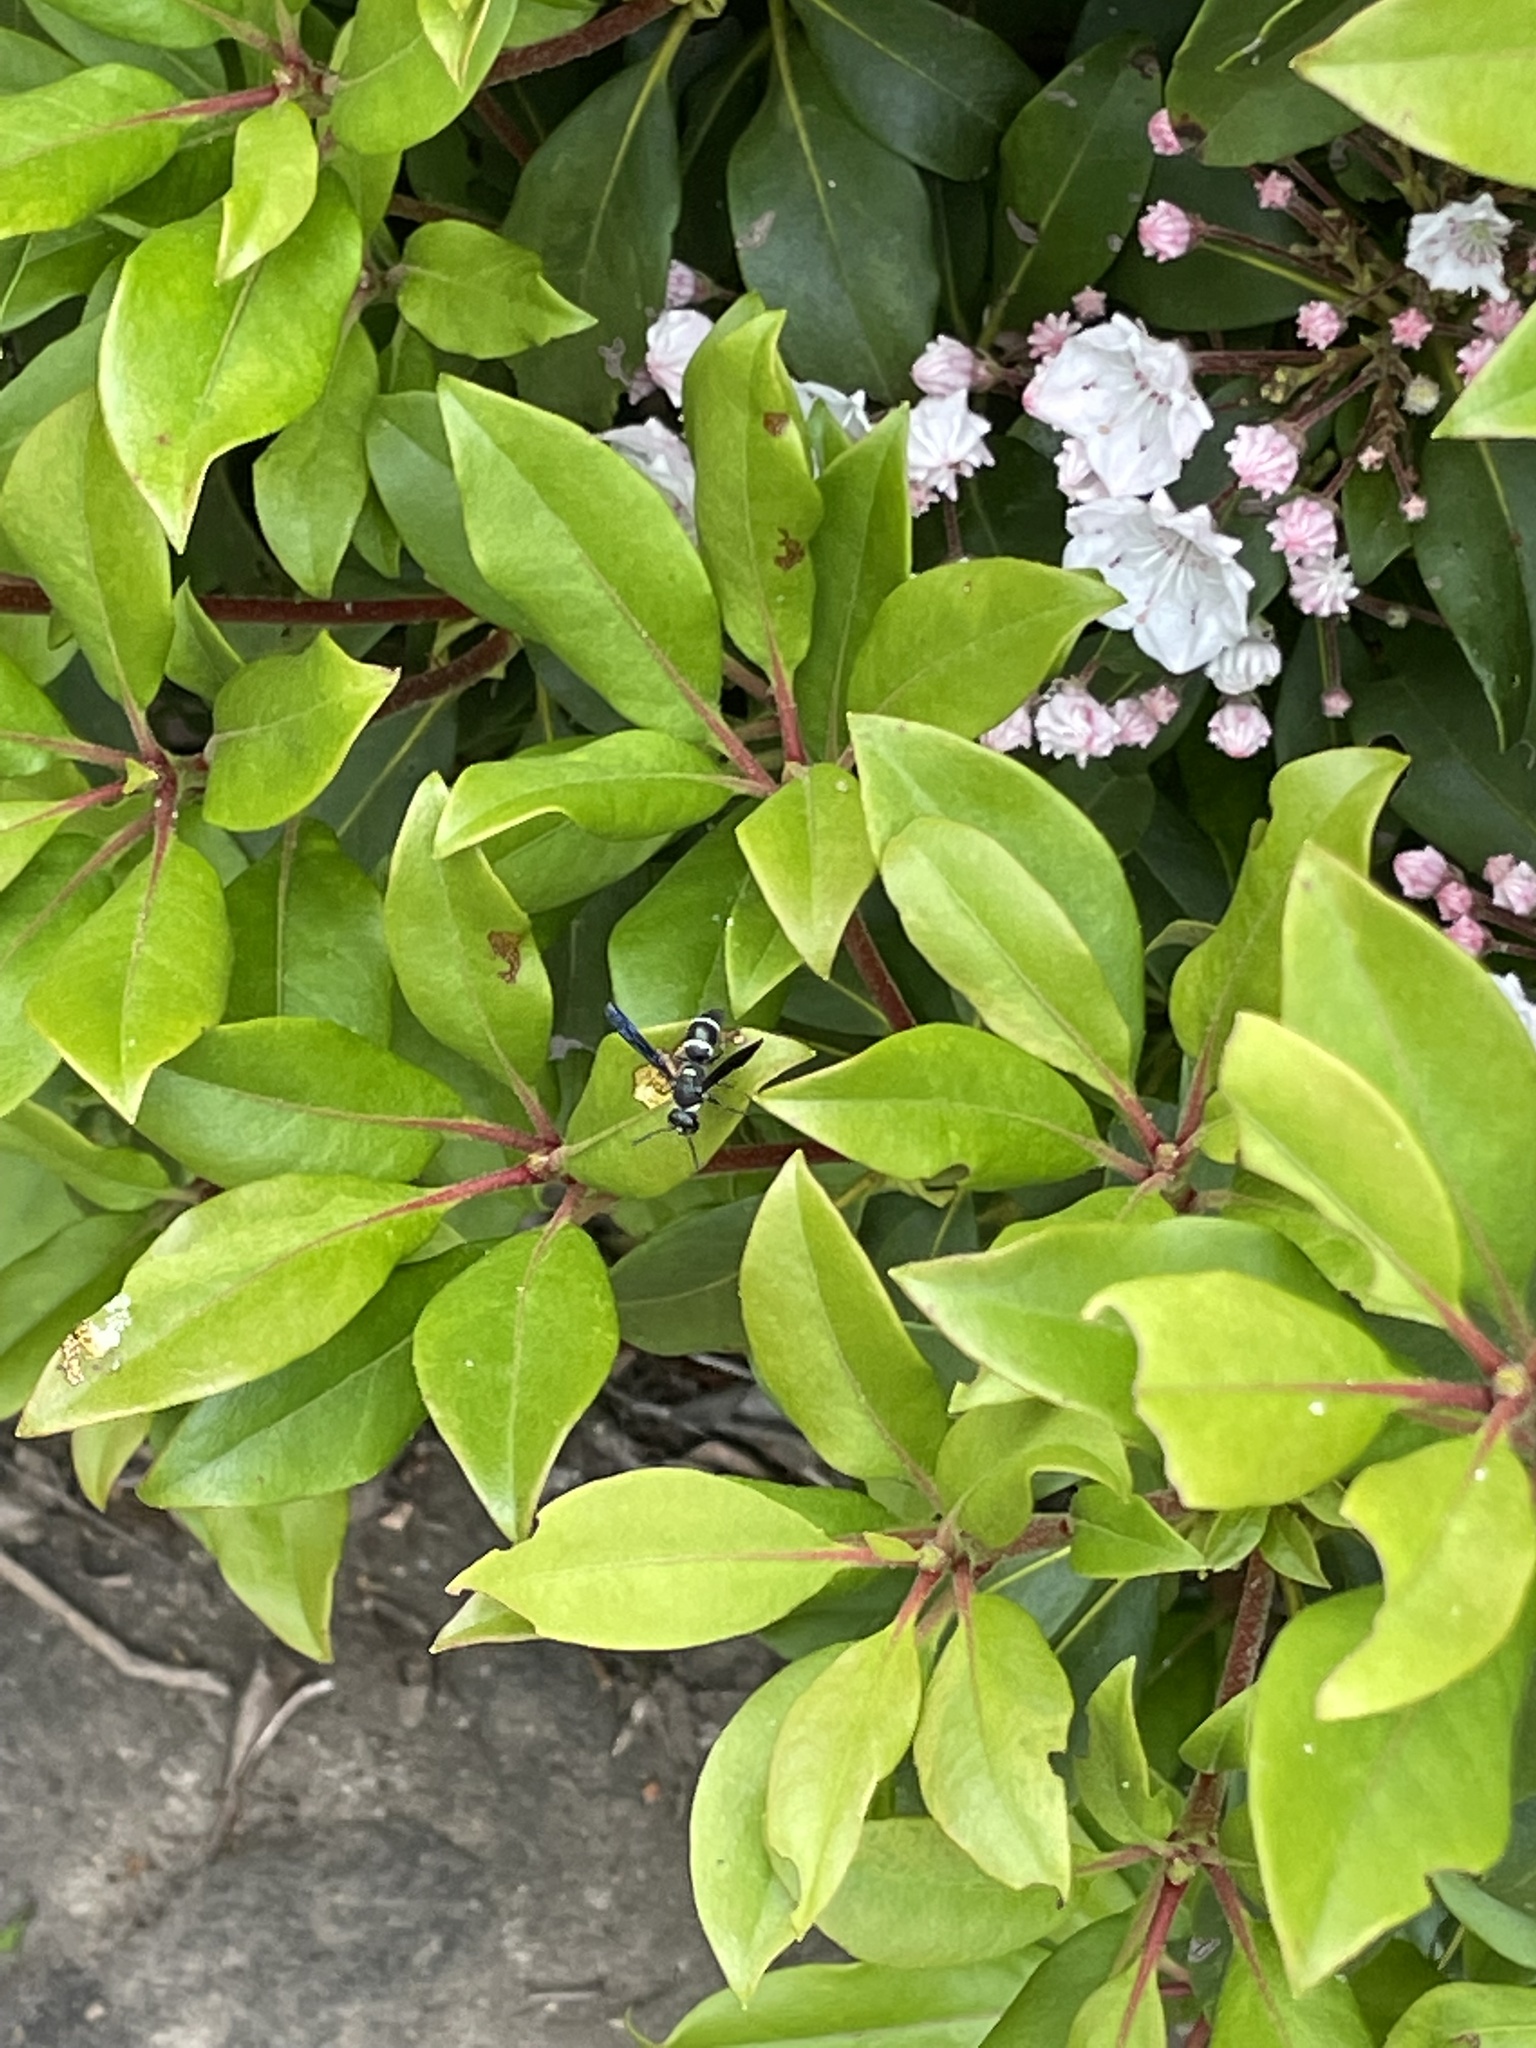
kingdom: Animalia
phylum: Arthropoda
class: Insecta
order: Hymenoptera
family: Eumenidae
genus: Euodynerus
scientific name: Euodynerus
